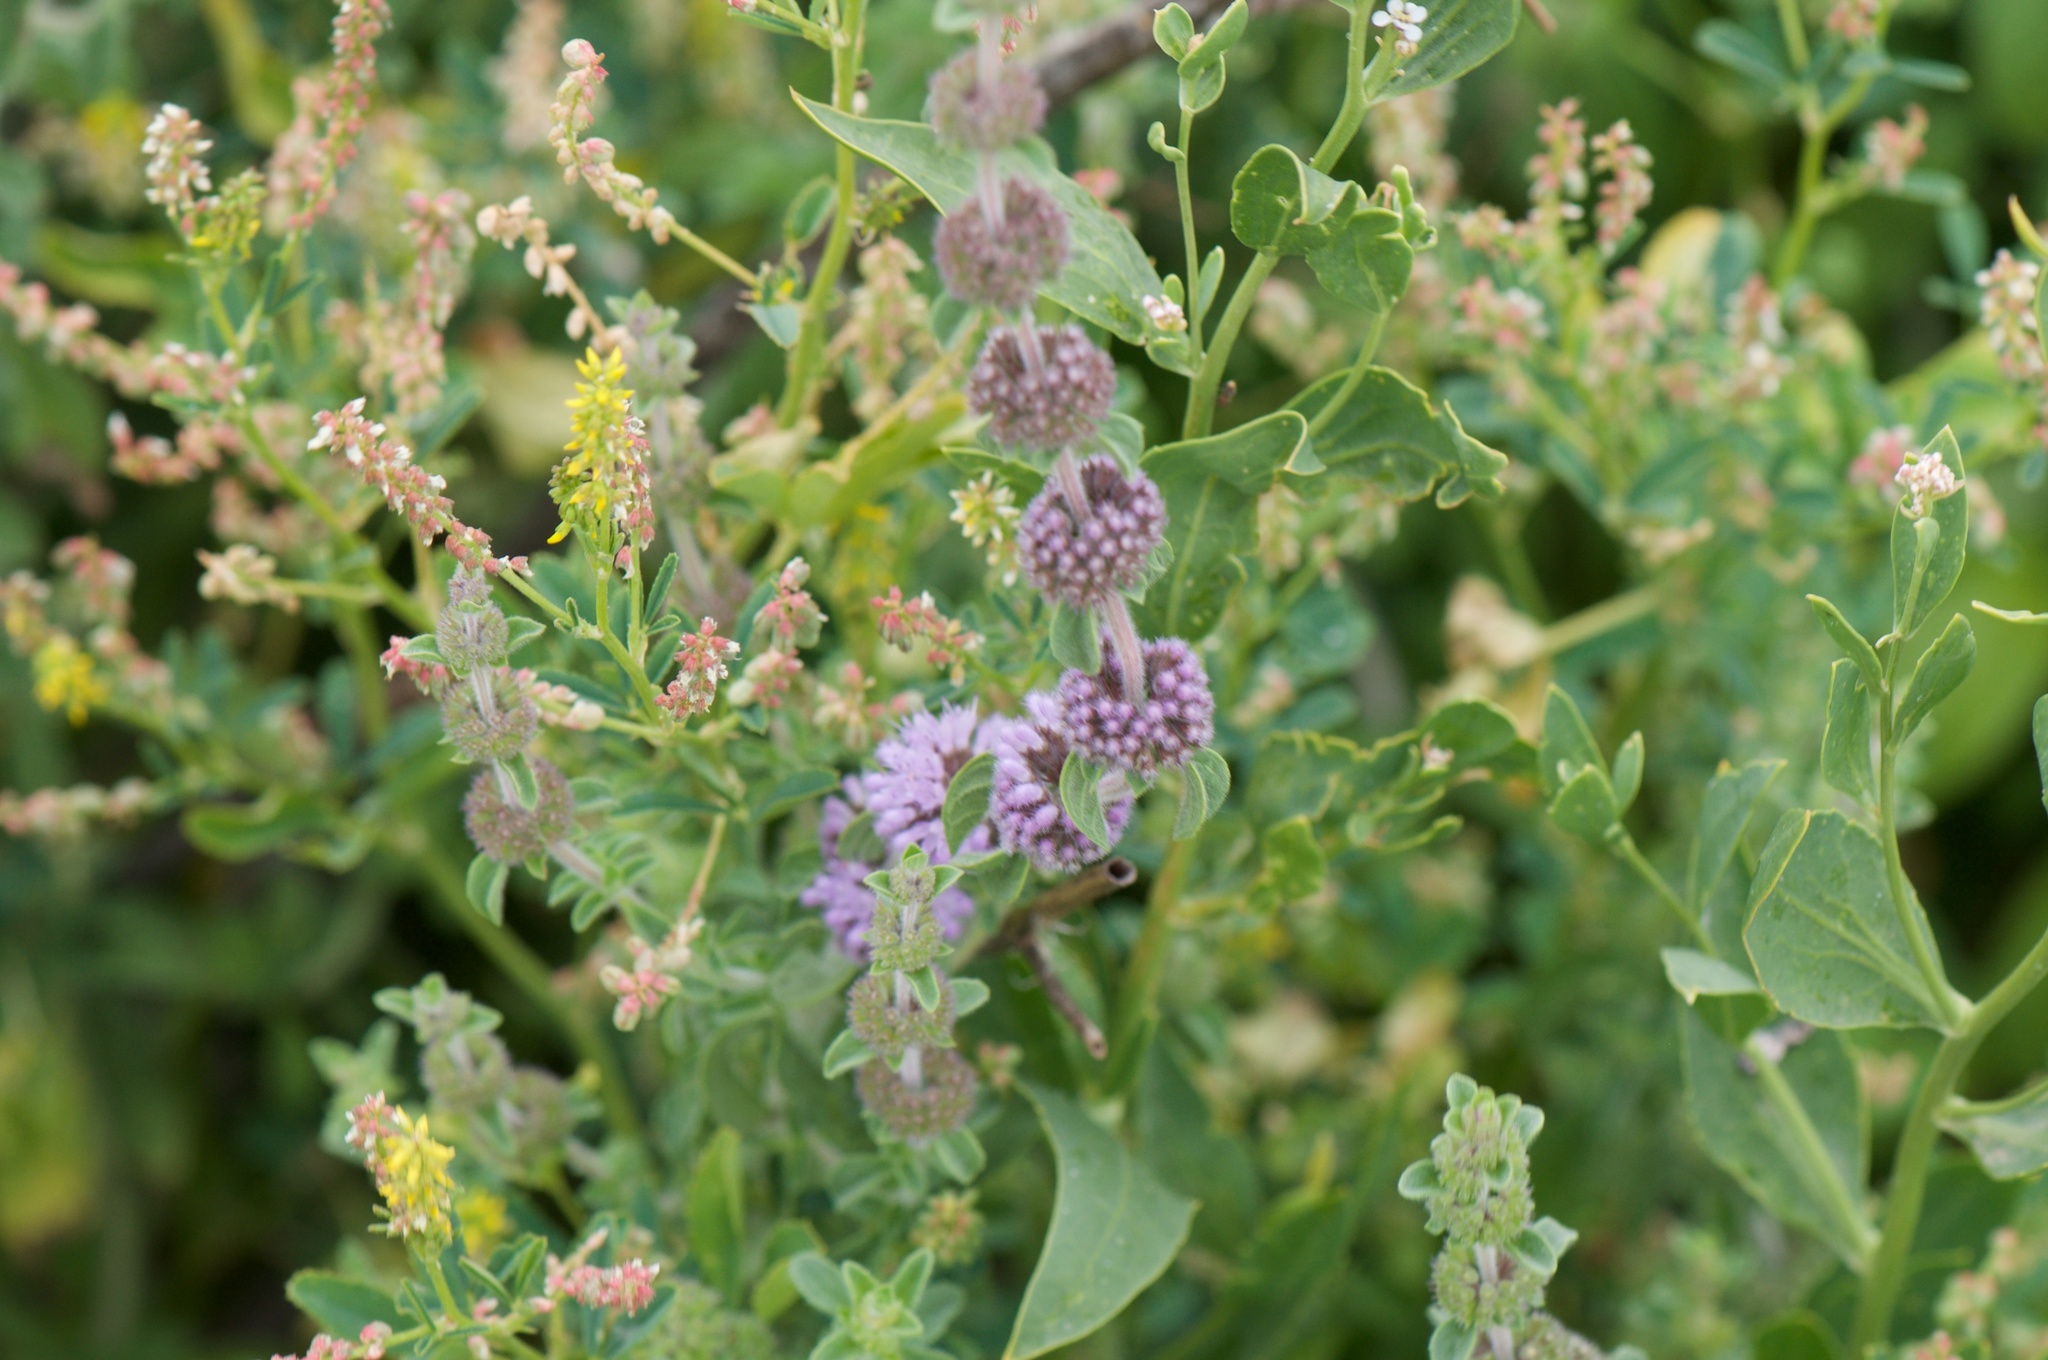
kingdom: Plantae
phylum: Tracheophyta
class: Magnoliopsida
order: Lamiales
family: Lamiaceae
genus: Mentha
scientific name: Mentha pulegium
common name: Pennyroyal
